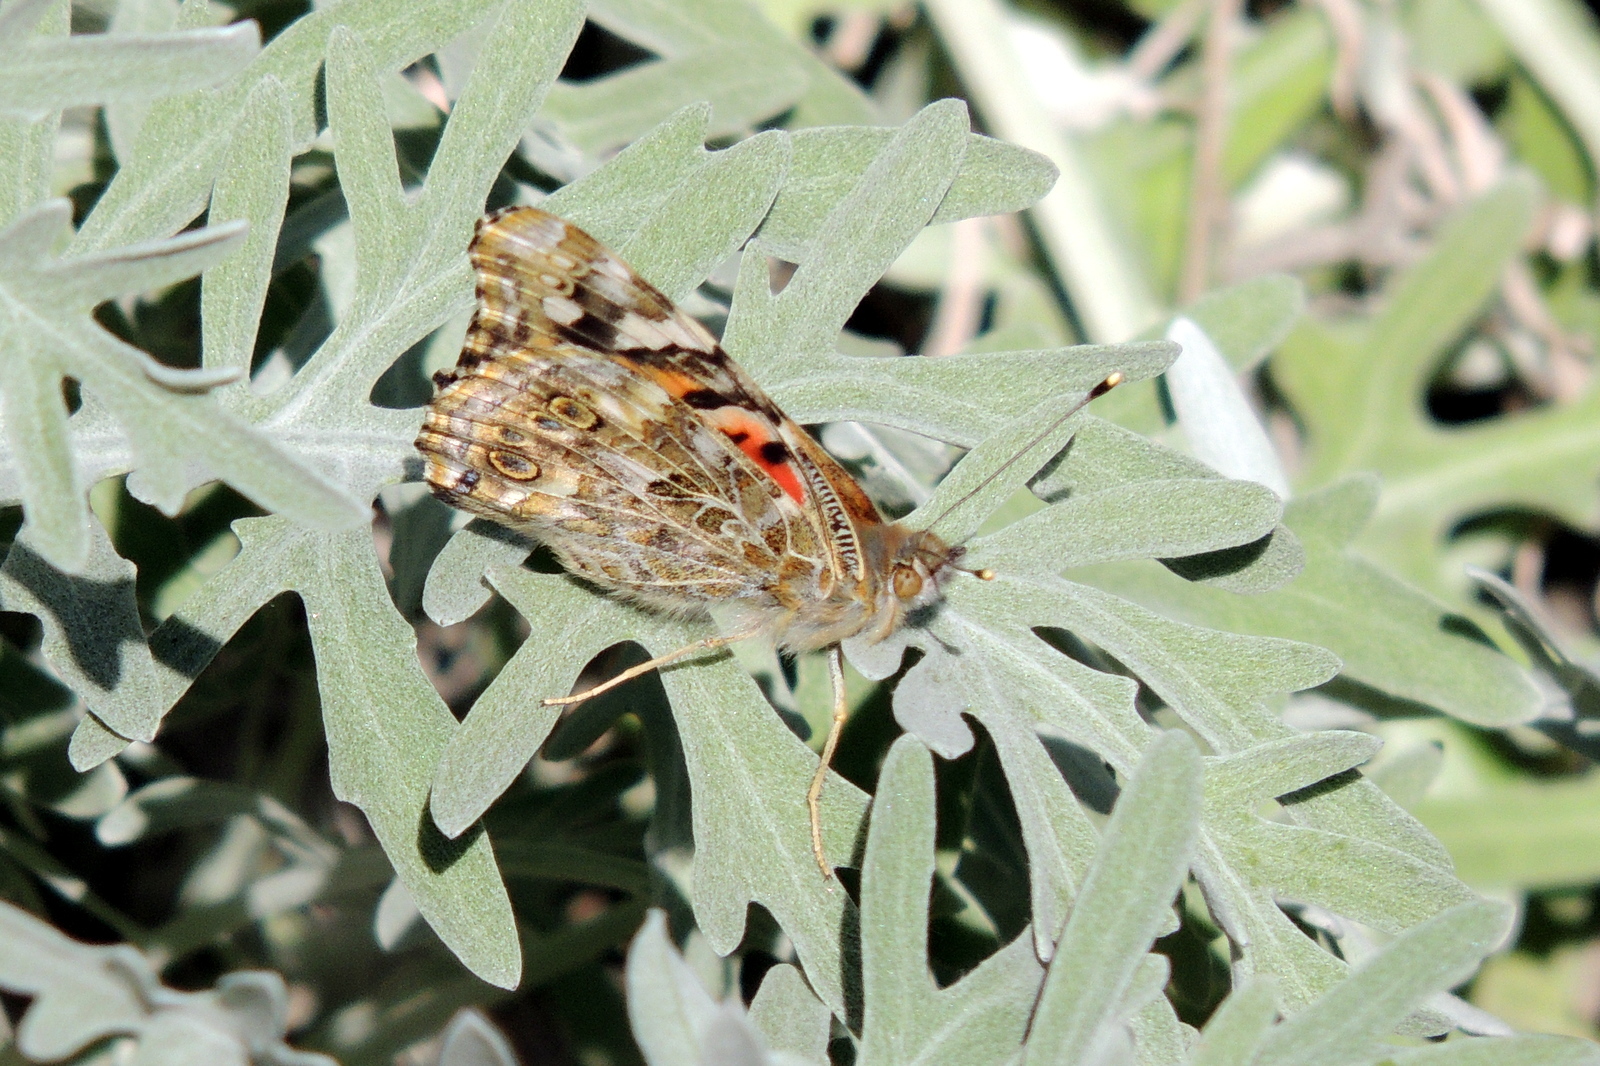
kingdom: Animalia
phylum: Arthropoda
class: Insecta
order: Lepidoptera
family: Nymphalidae
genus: Vanessa
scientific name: Vanessa cardui
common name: Painted lady
